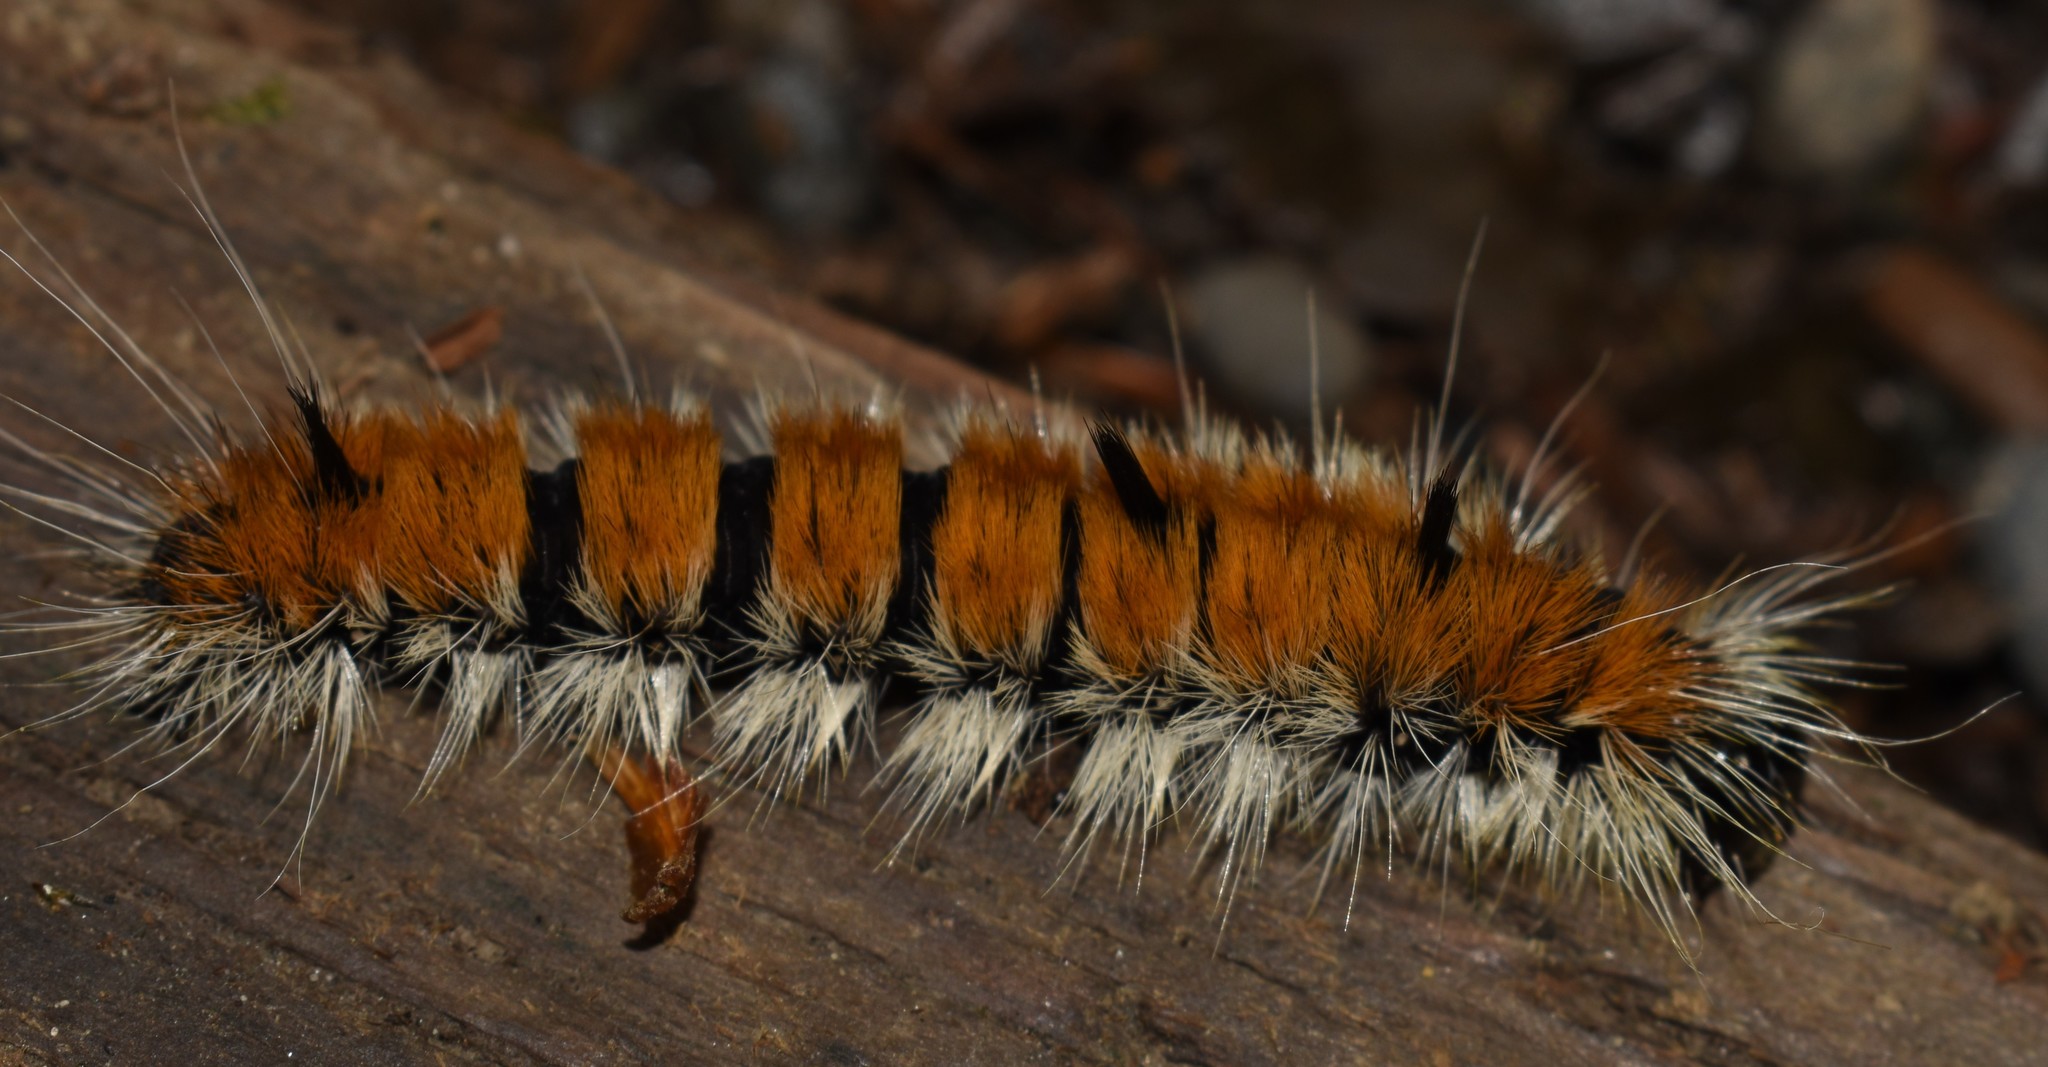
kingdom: Animalia
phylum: Arthropoda
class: Insecta
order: Lepidoptera
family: Noctuidae
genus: Acronicta
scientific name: Acronicta insita
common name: Large gray dagger
